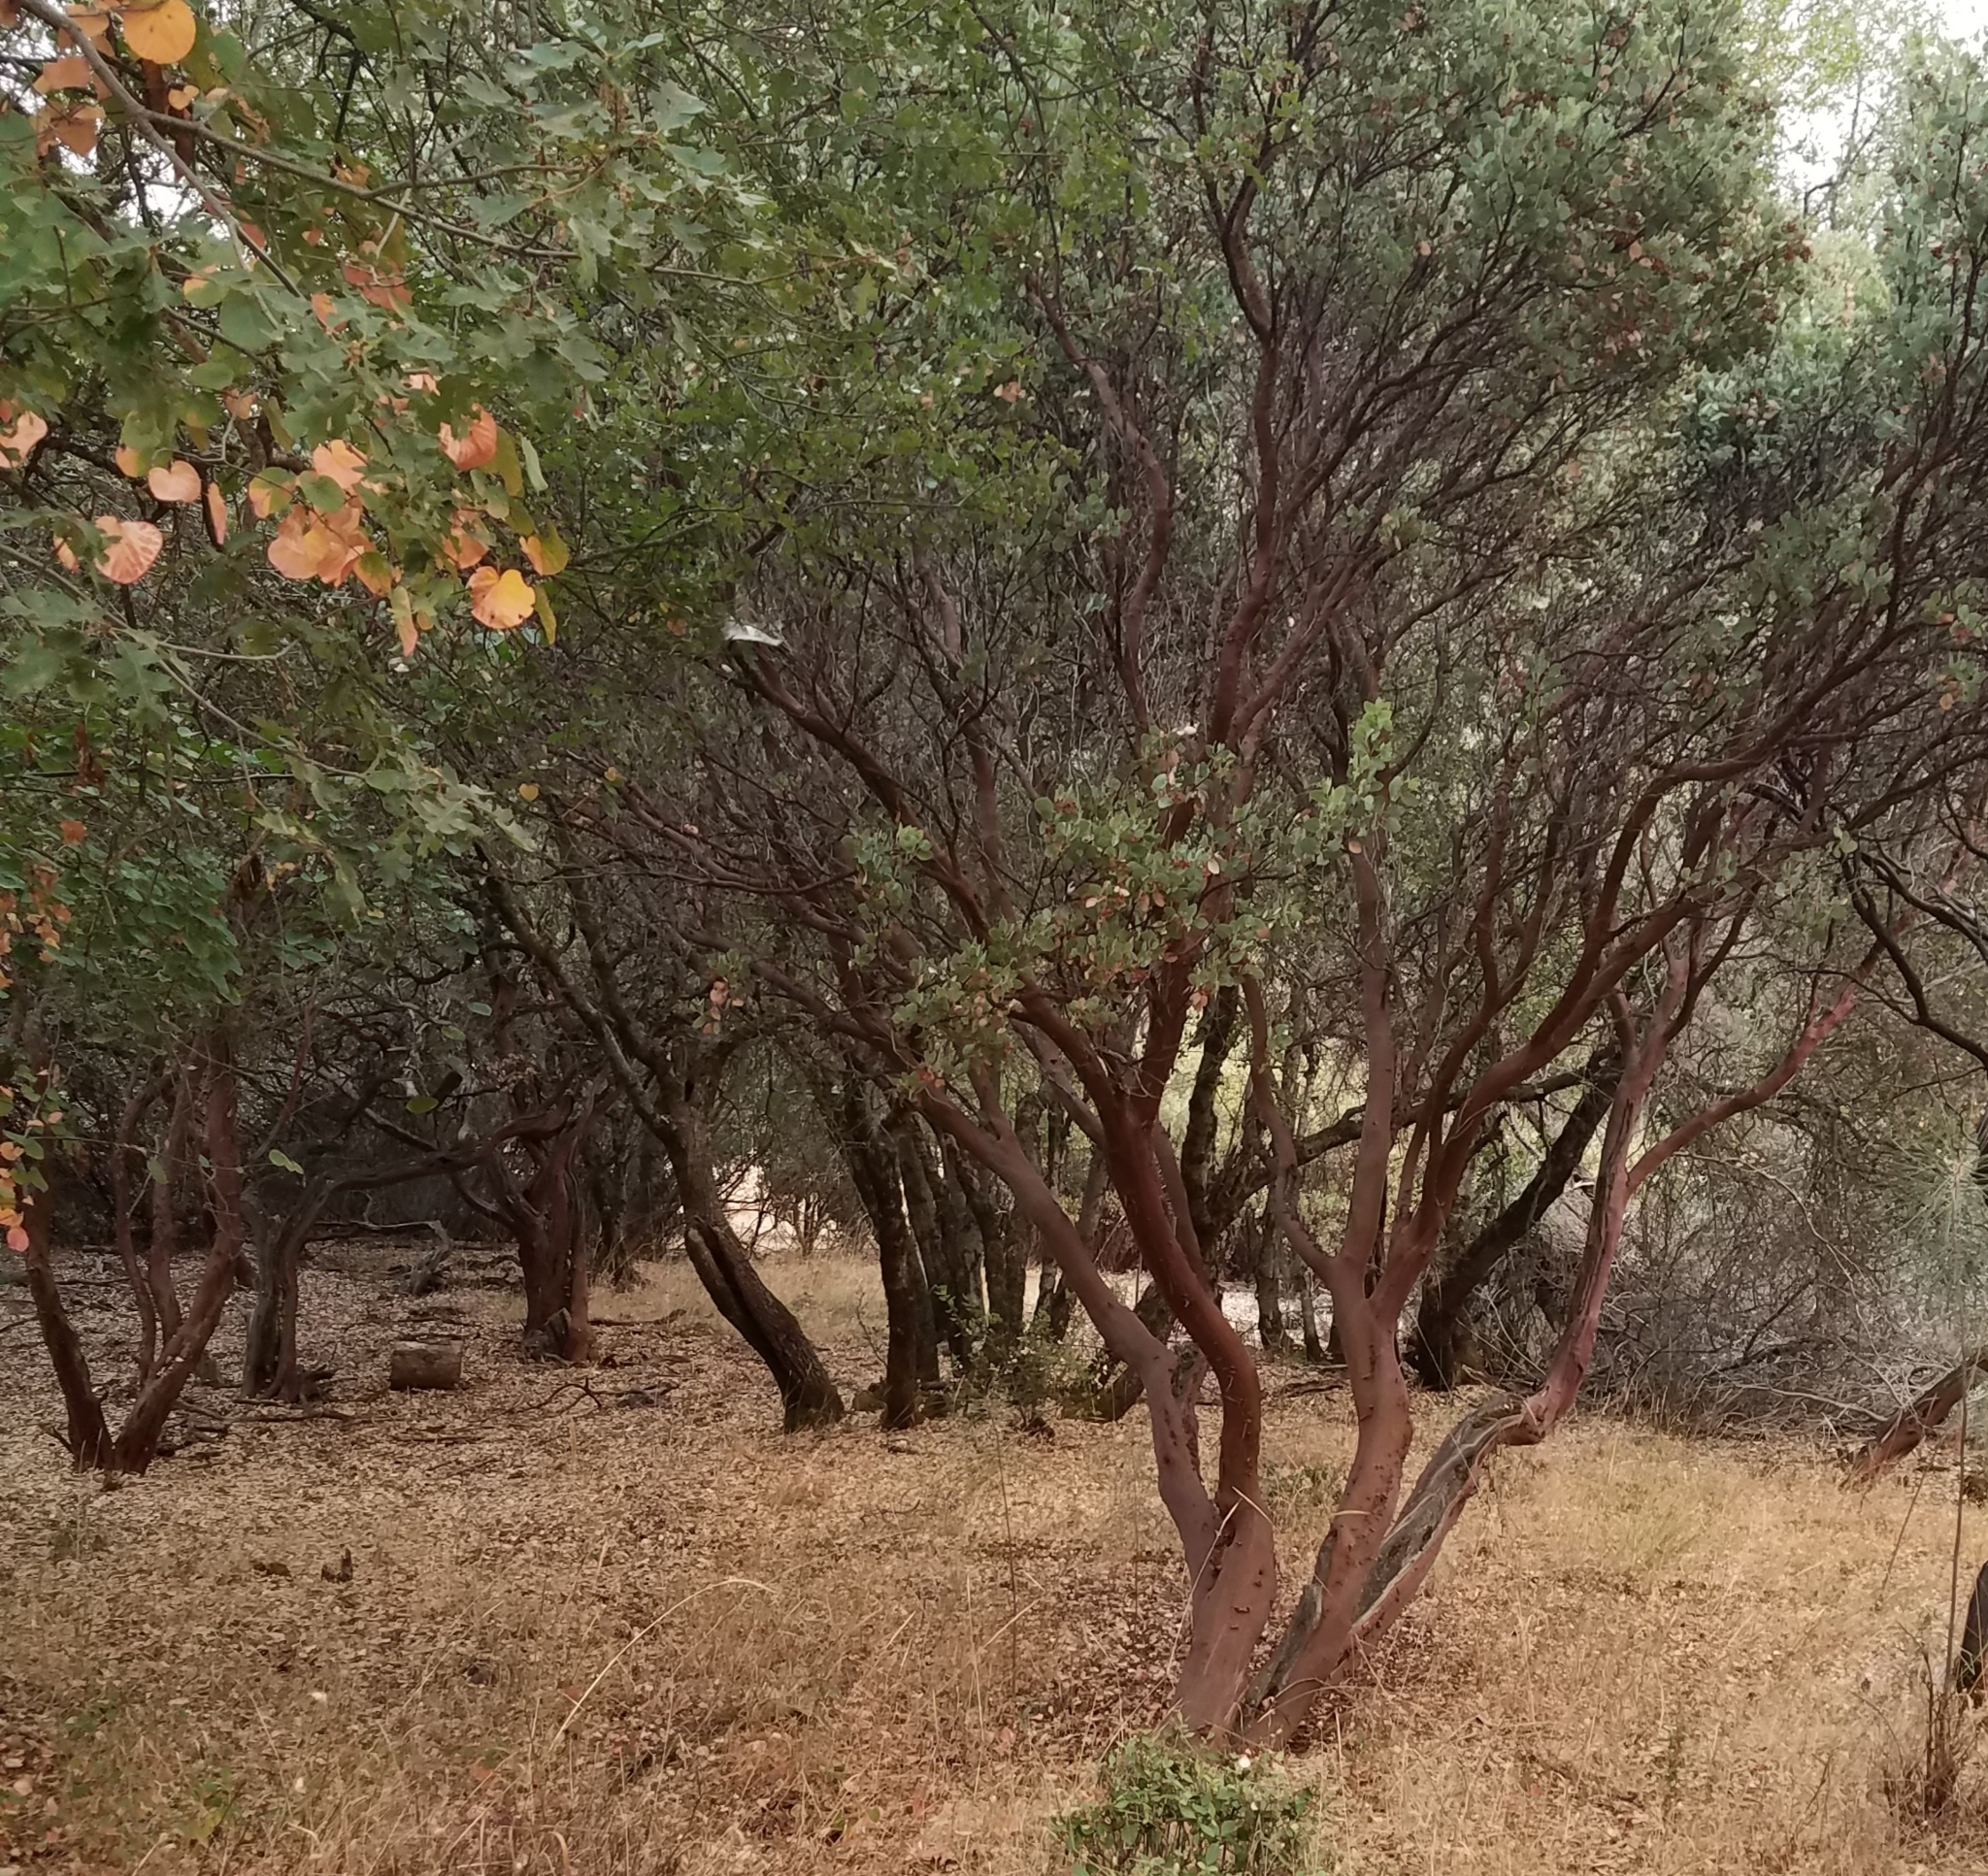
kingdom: Plantae
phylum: Tracheophyta
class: Magnoliopsida
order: Ericales
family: Ericaceae
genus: Arctostaphylos
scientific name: Arctostaphylos viscida
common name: White-leaf manzanita
